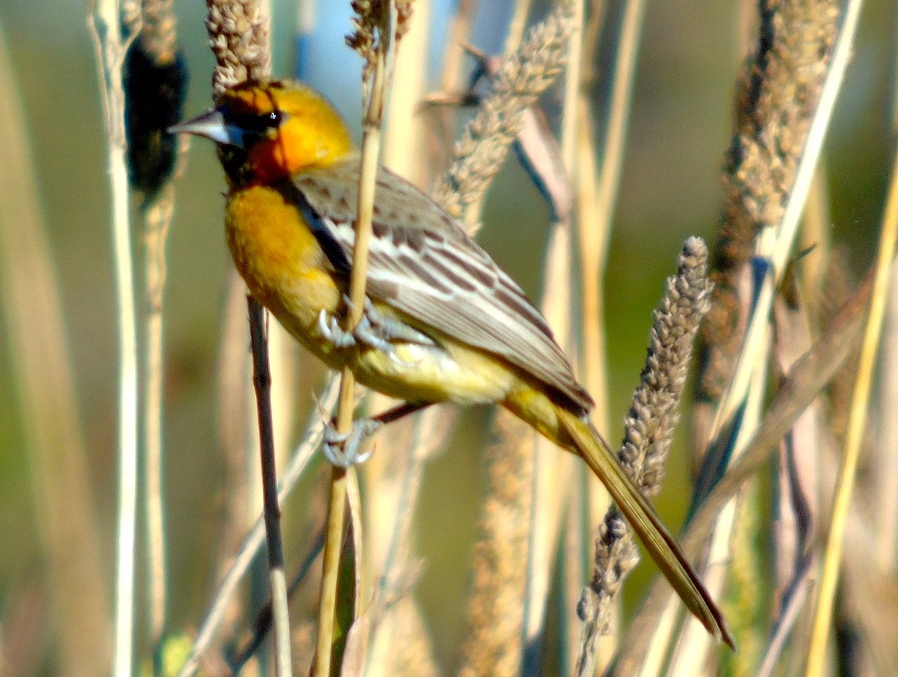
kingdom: Animalia
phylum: Chordata
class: Aves
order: Passeriformes
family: Icteridae
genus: Icterus
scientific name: Icterus pustulatus
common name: Streak-backed oriole
